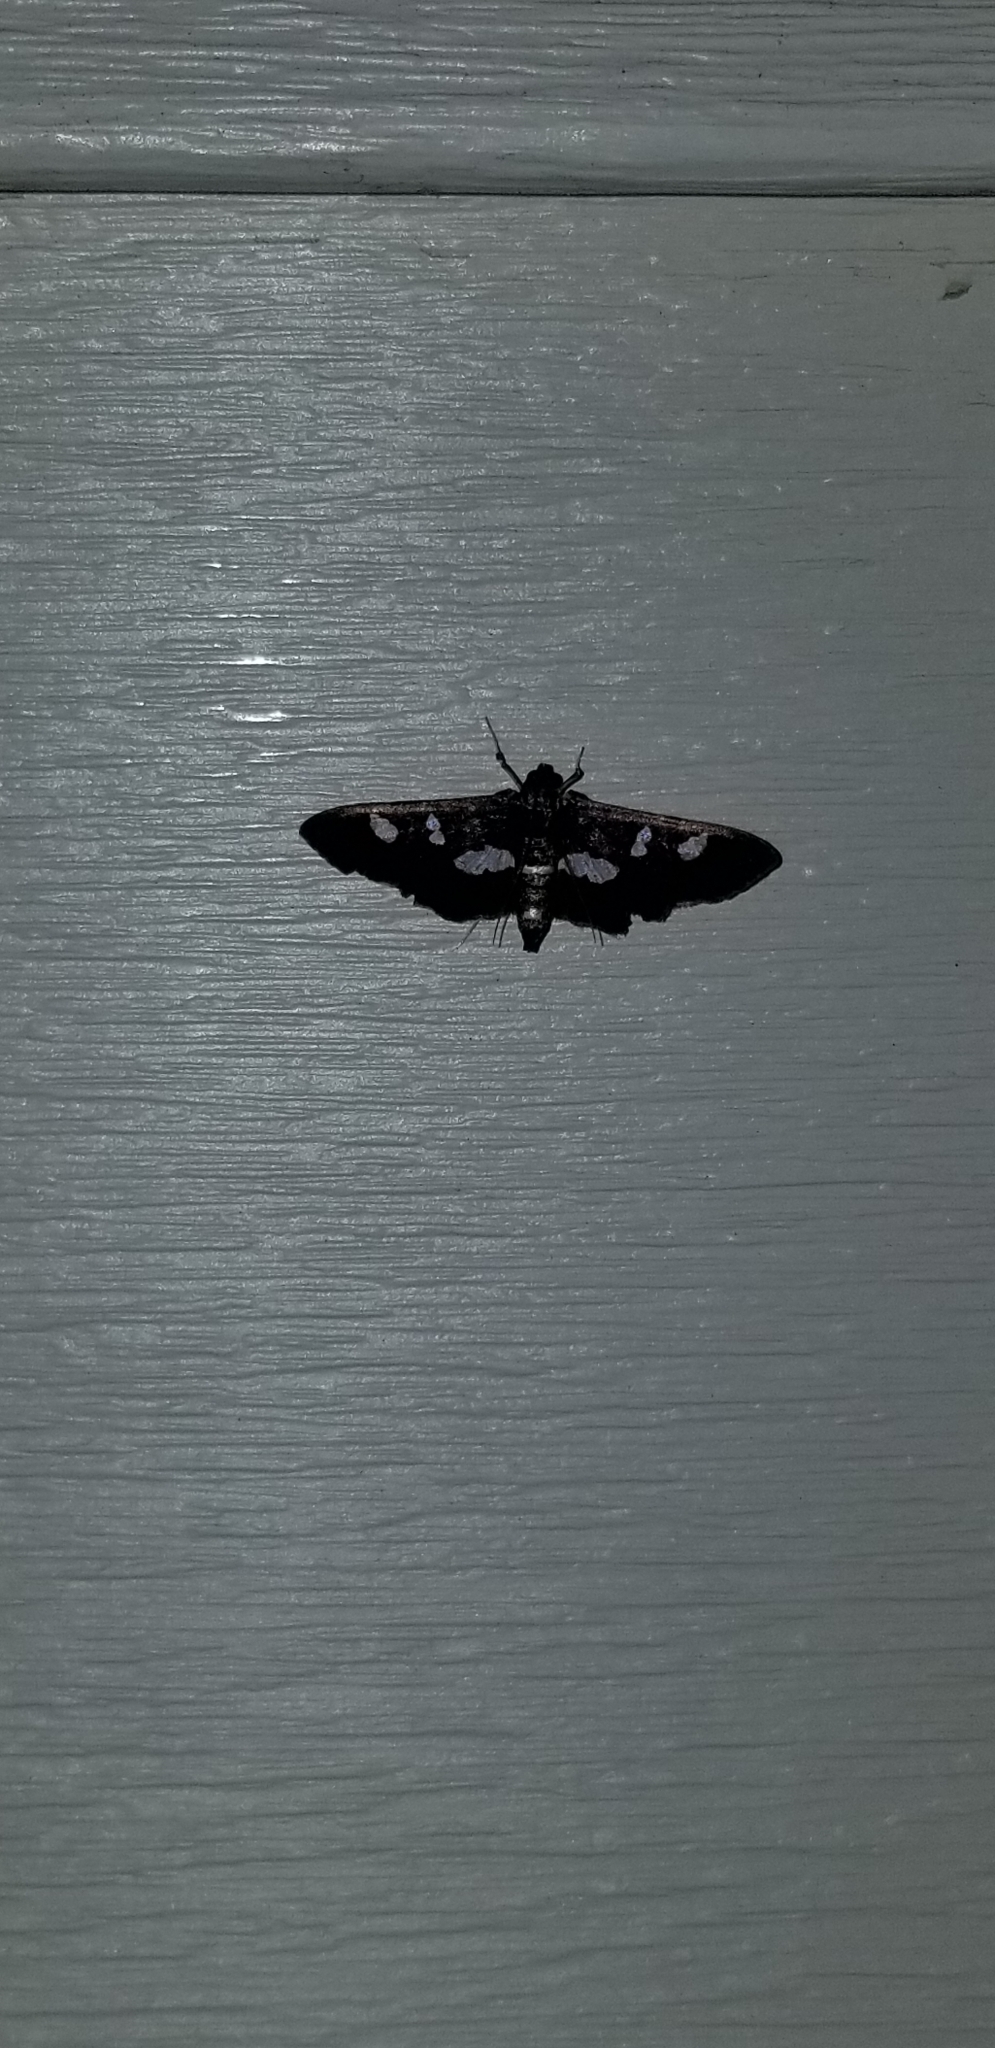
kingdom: Animalia
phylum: Arthropoda
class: Insecta
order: Lepidoptera
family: Crambidae
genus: Desmia
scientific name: Desmia
